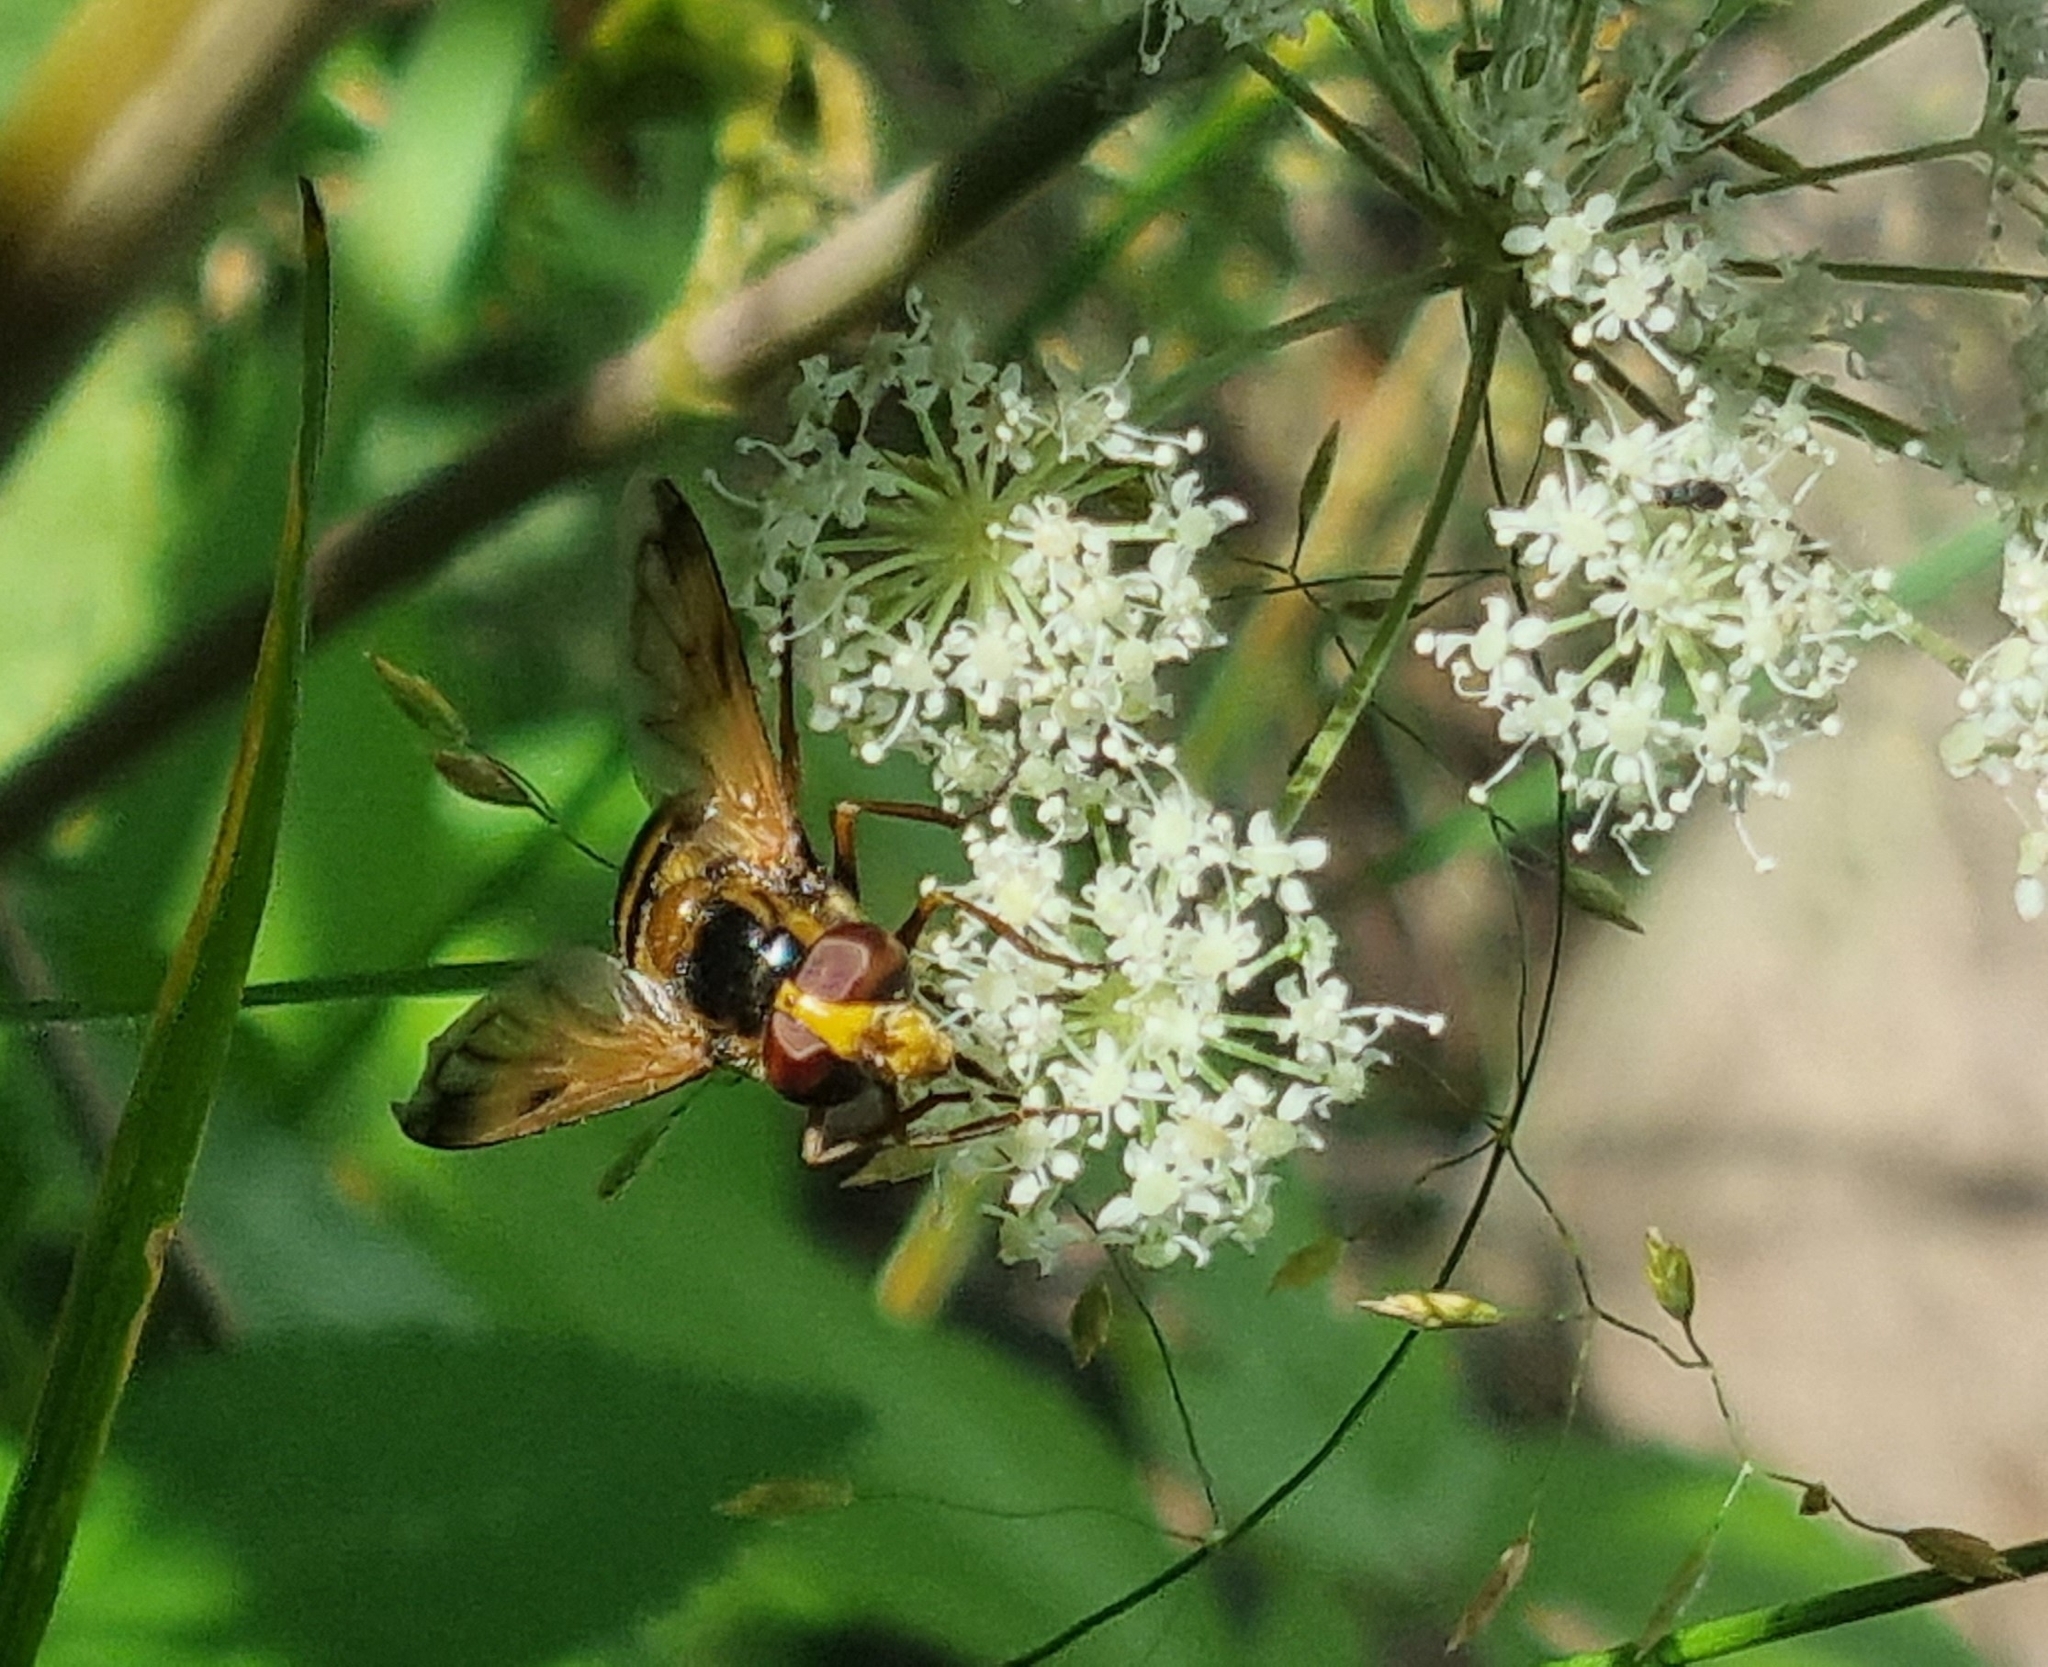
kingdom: Animalia
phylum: Arthropoda
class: Insecta
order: Diptera
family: Syrphidae
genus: Volucella
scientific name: Volucella inanis
